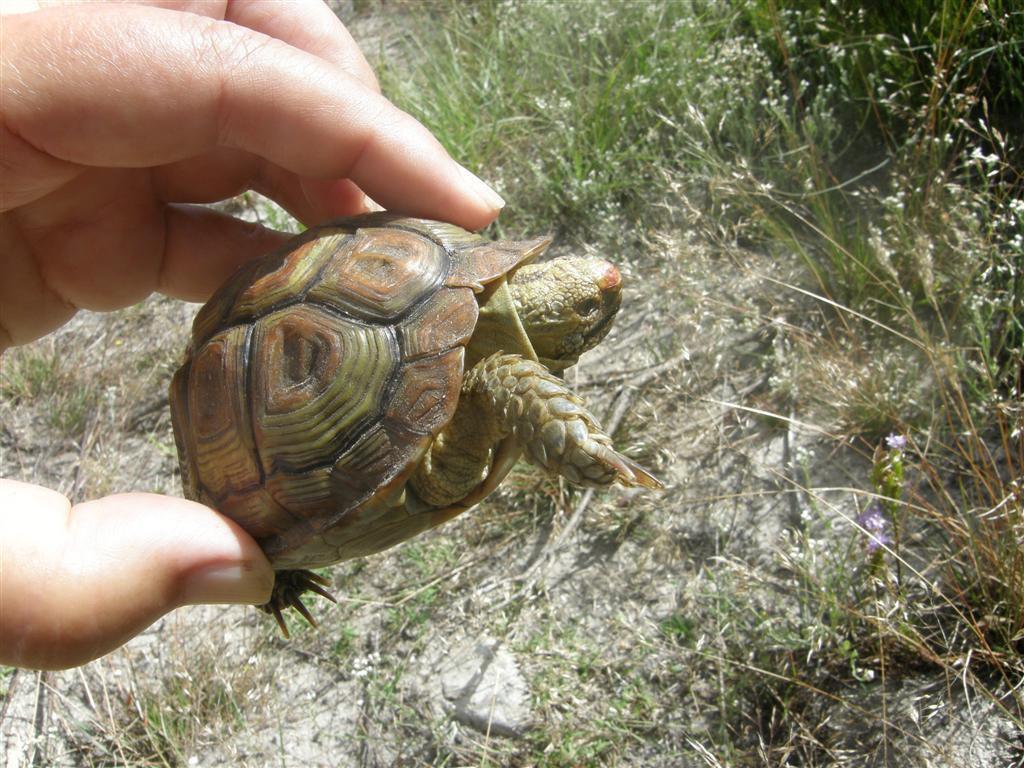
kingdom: Animalia
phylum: Chordata
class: Testudines
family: Testudinidae
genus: Homopus
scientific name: Homopus areolatus
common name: Parrot-beaked tortoise
